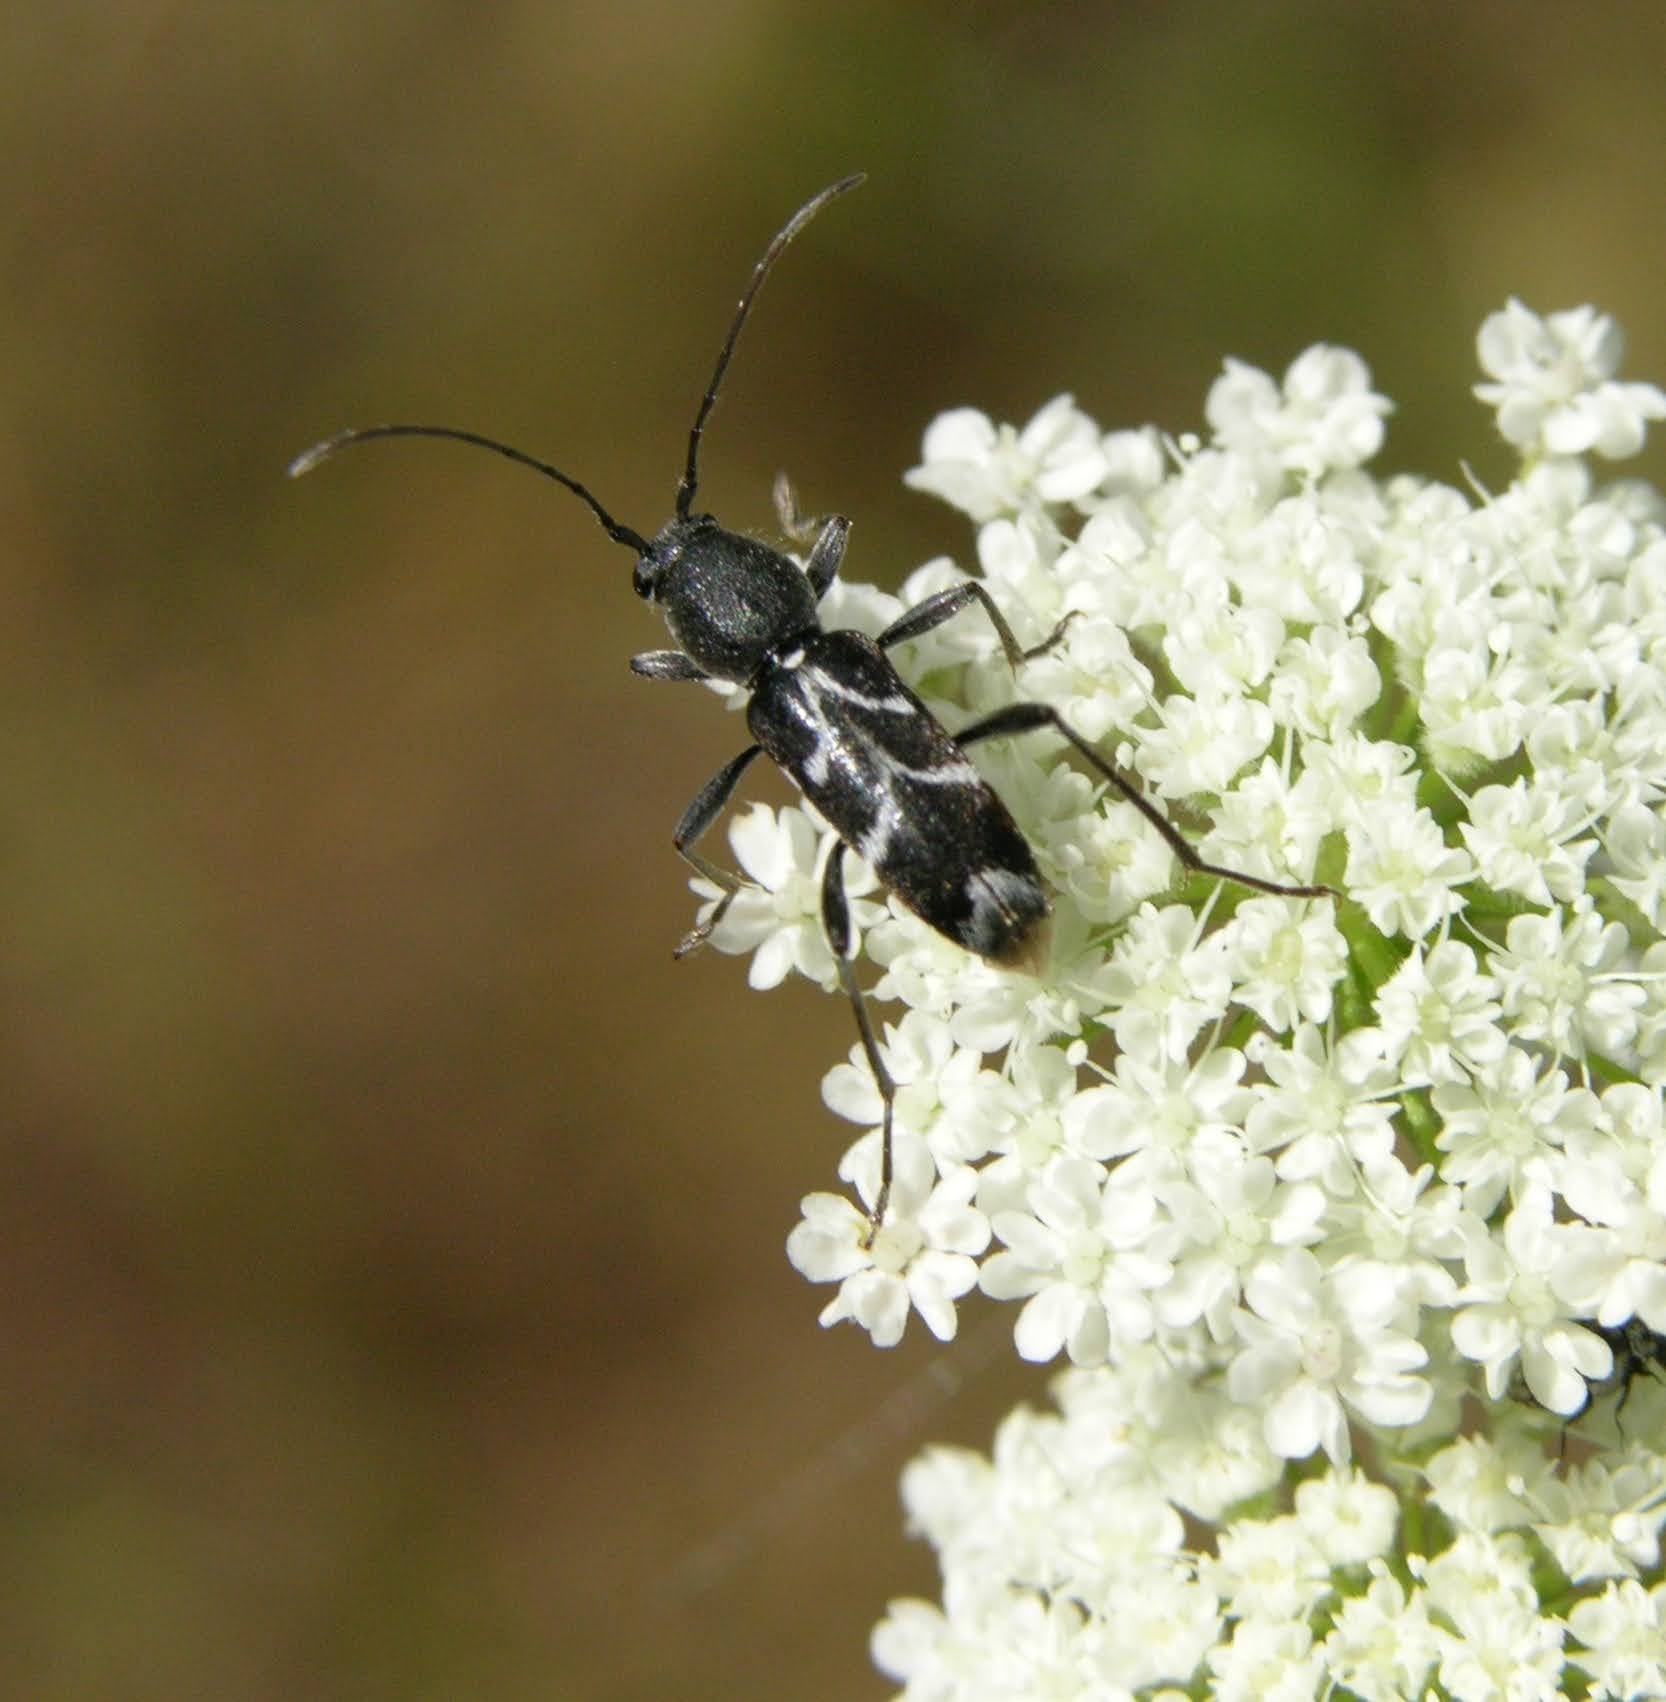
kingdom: Animalia
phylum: Arthropoda
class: Insecta
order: Coleoptera
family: Cerambycidae
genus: Chlorophorus
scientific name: Chlorophorus sartor
